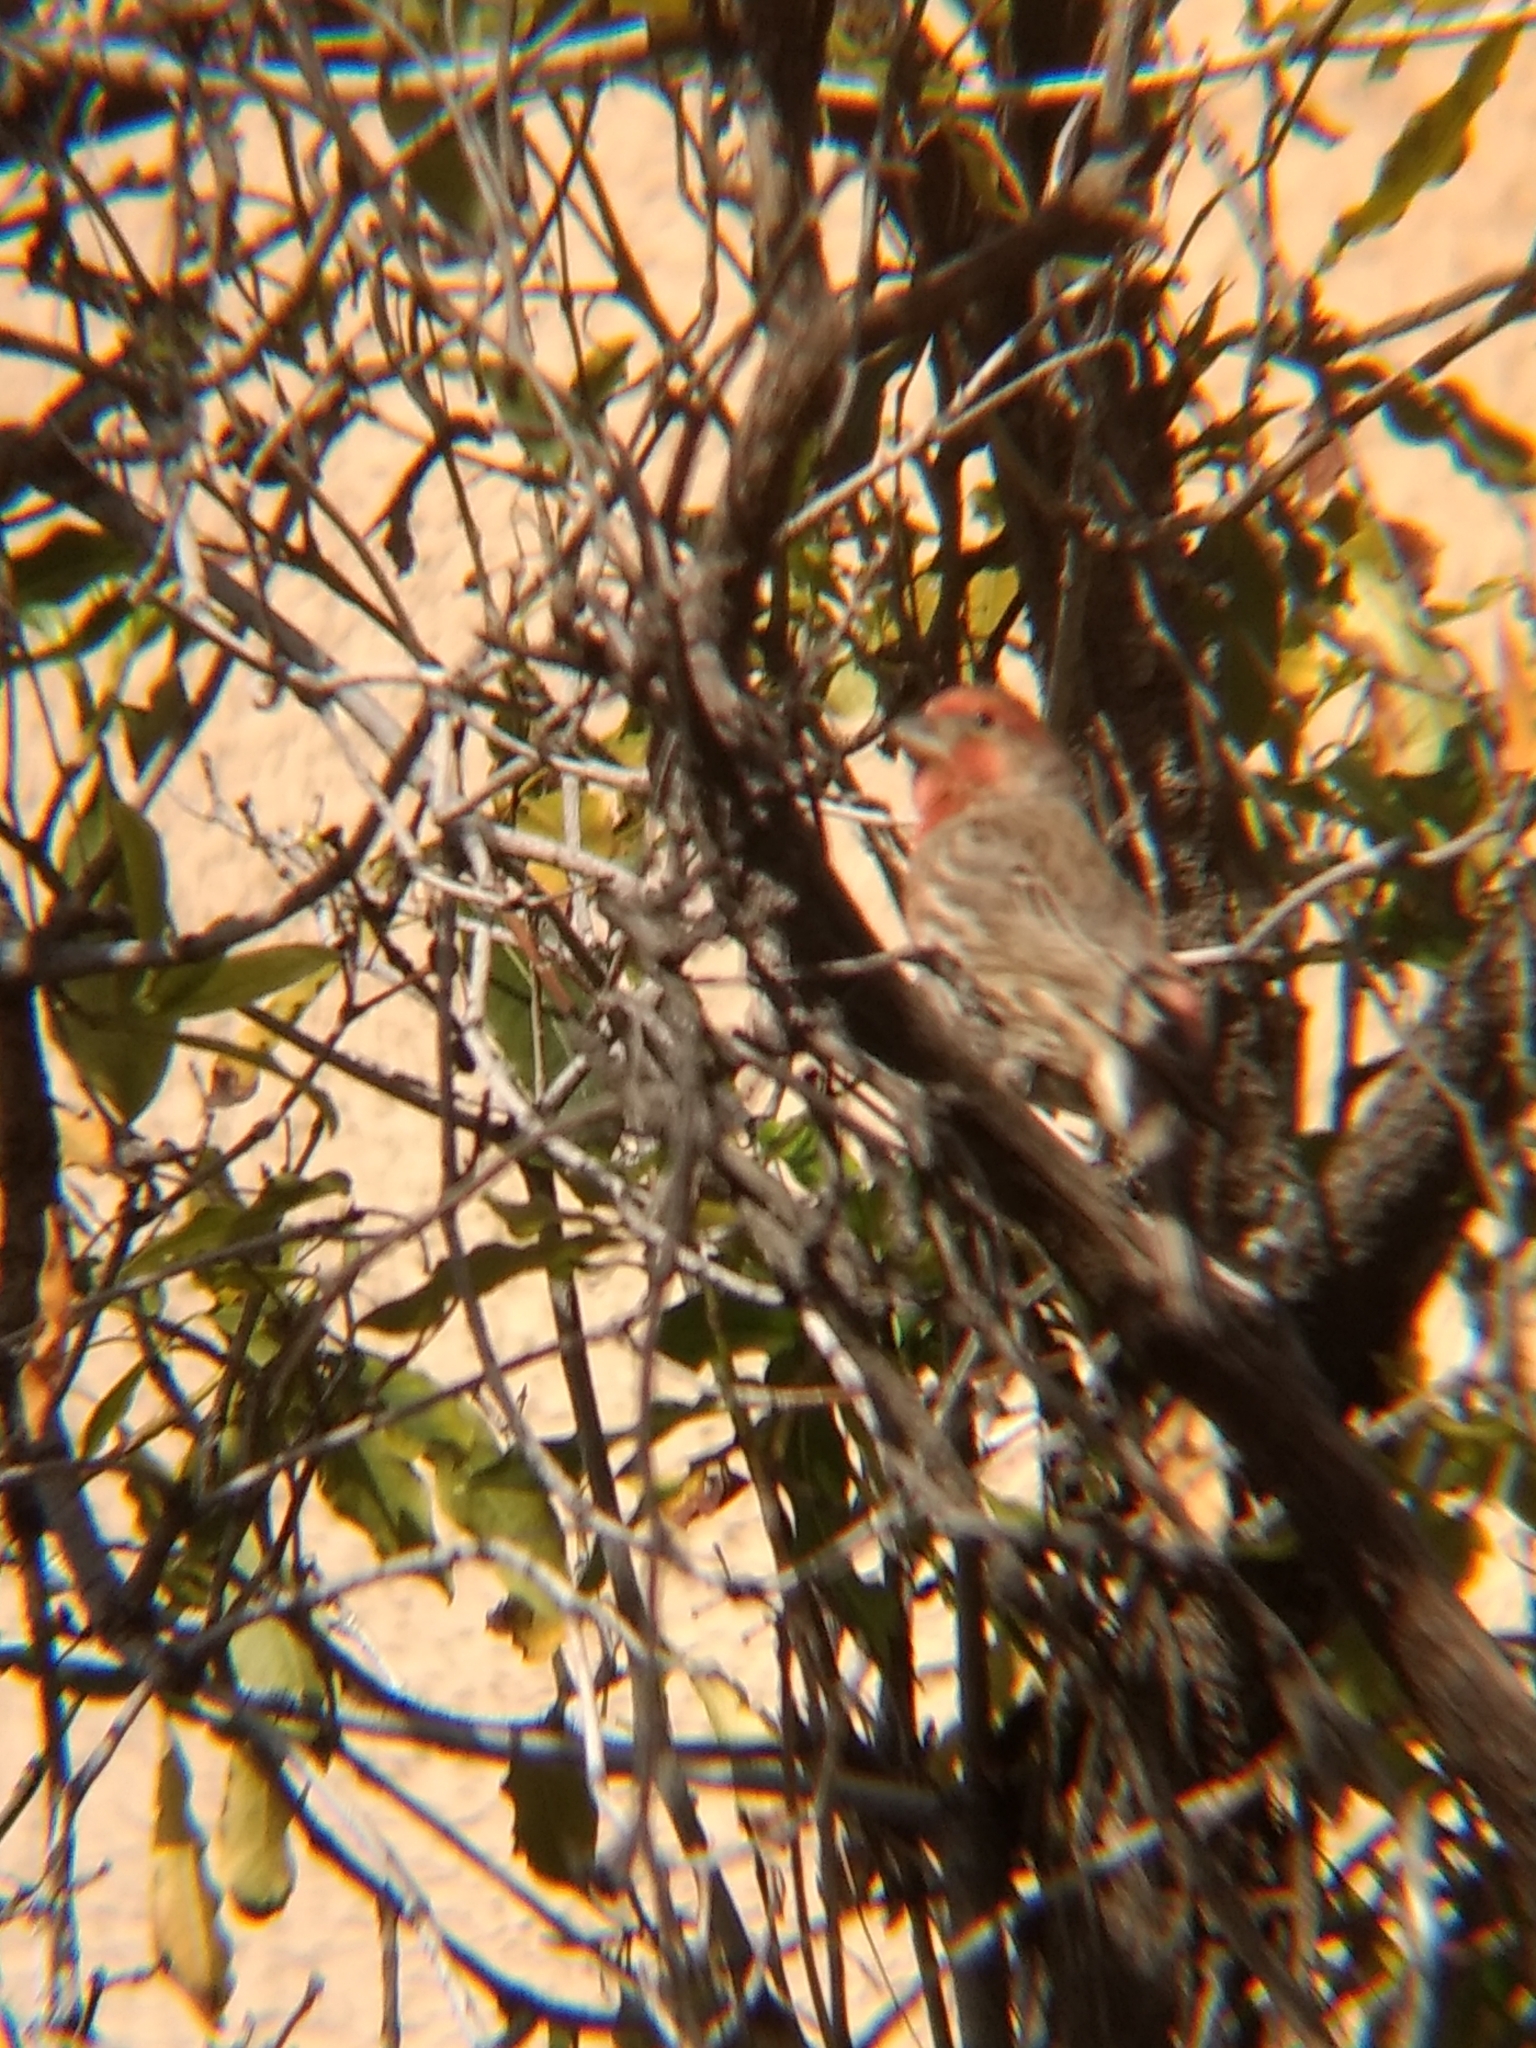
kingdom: Animalia
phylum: Chordata
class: Aves
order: Passeriformes
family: Fringillidae
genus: Haemorhous
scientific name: Haemorhous mexicanus
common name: House finch
